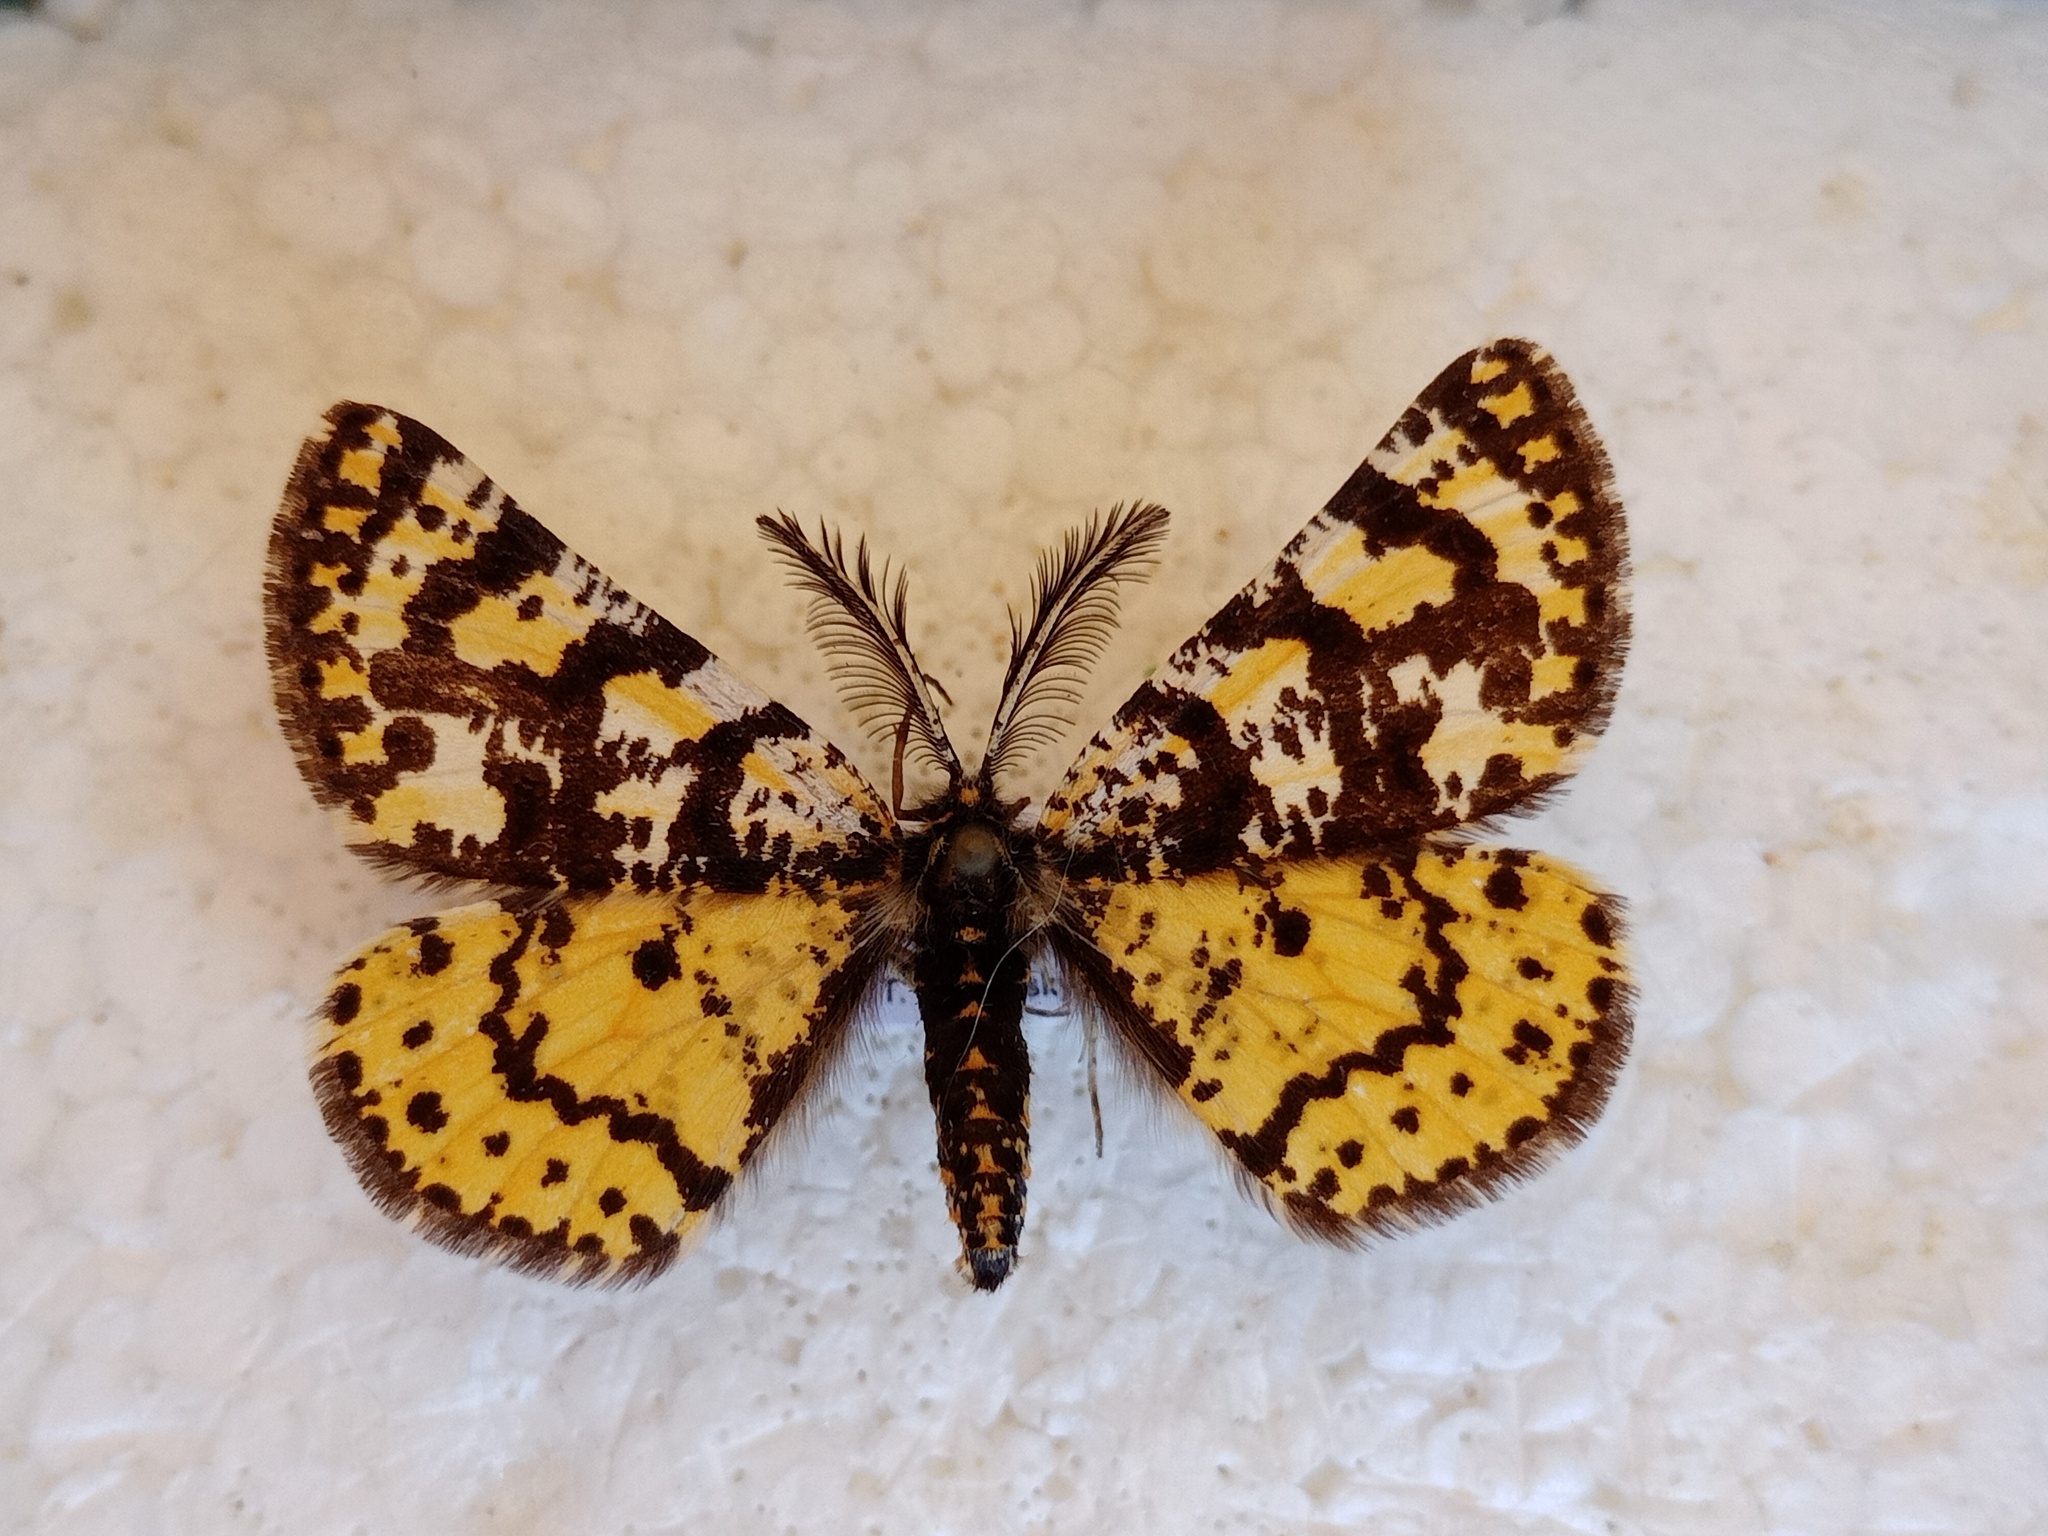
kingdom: Animalia
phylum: Arthropoda
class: Insecta
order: Lepidoptera
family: Geometridae
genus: Eurranthis
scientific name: Eurranthis plummistaria
